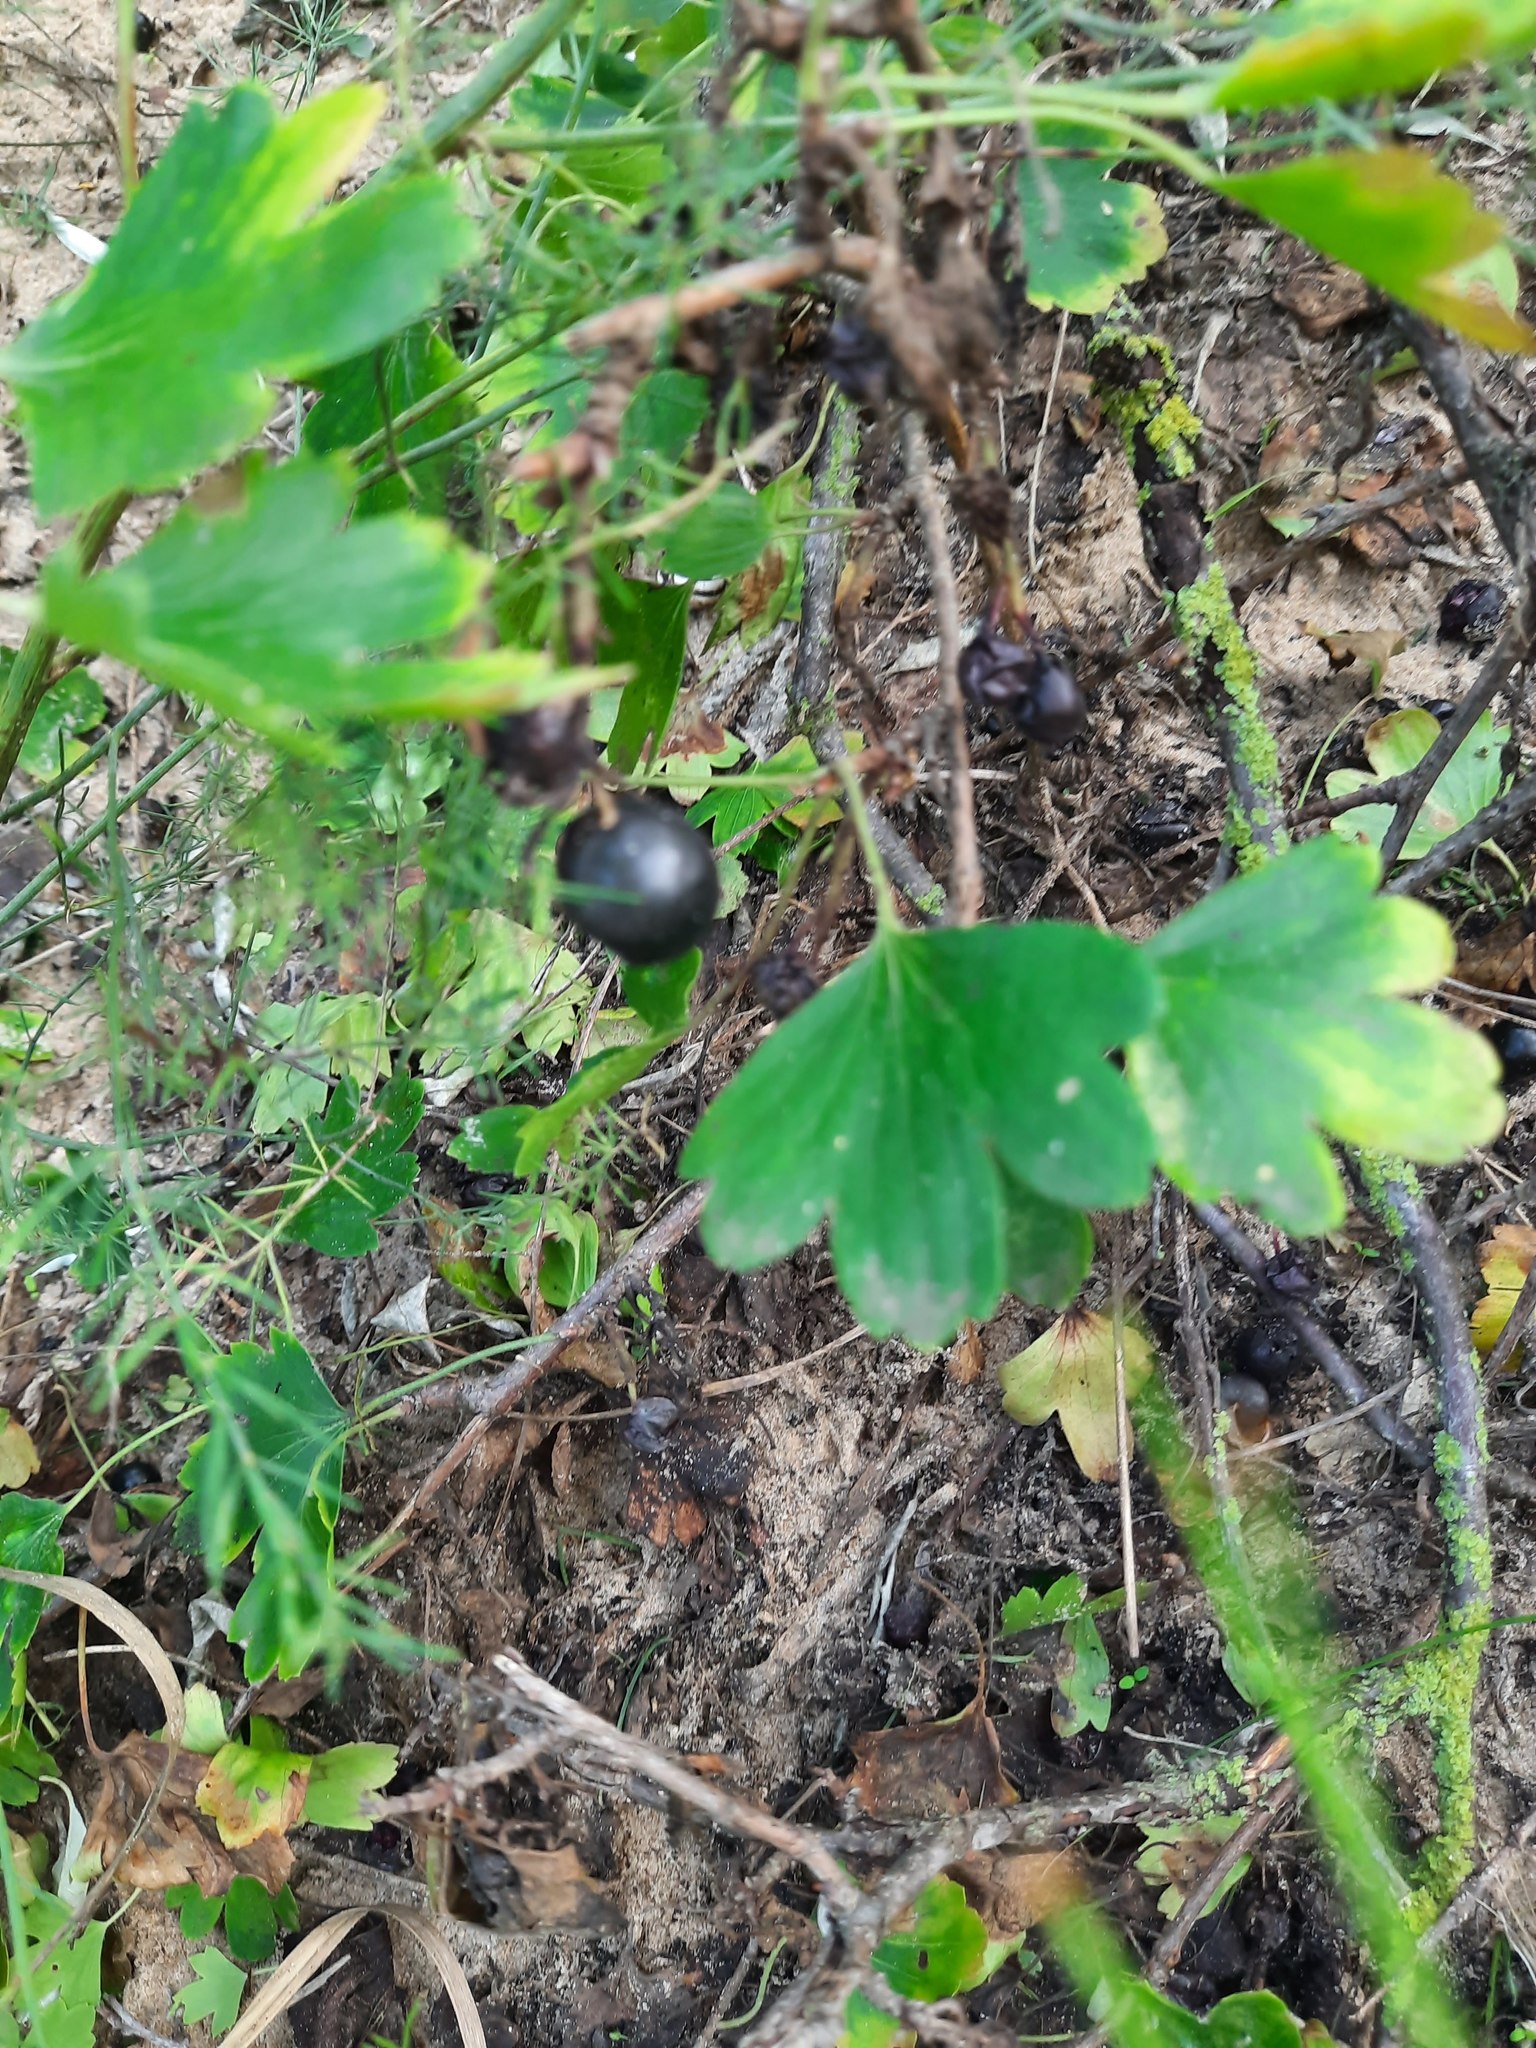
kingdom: Plantae
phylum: Tracheophyta
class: Magnoliopsida
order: Saxifragales
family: Grossulariaceae
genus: Ribes
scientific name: Ribes aureum
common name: Golden currant
